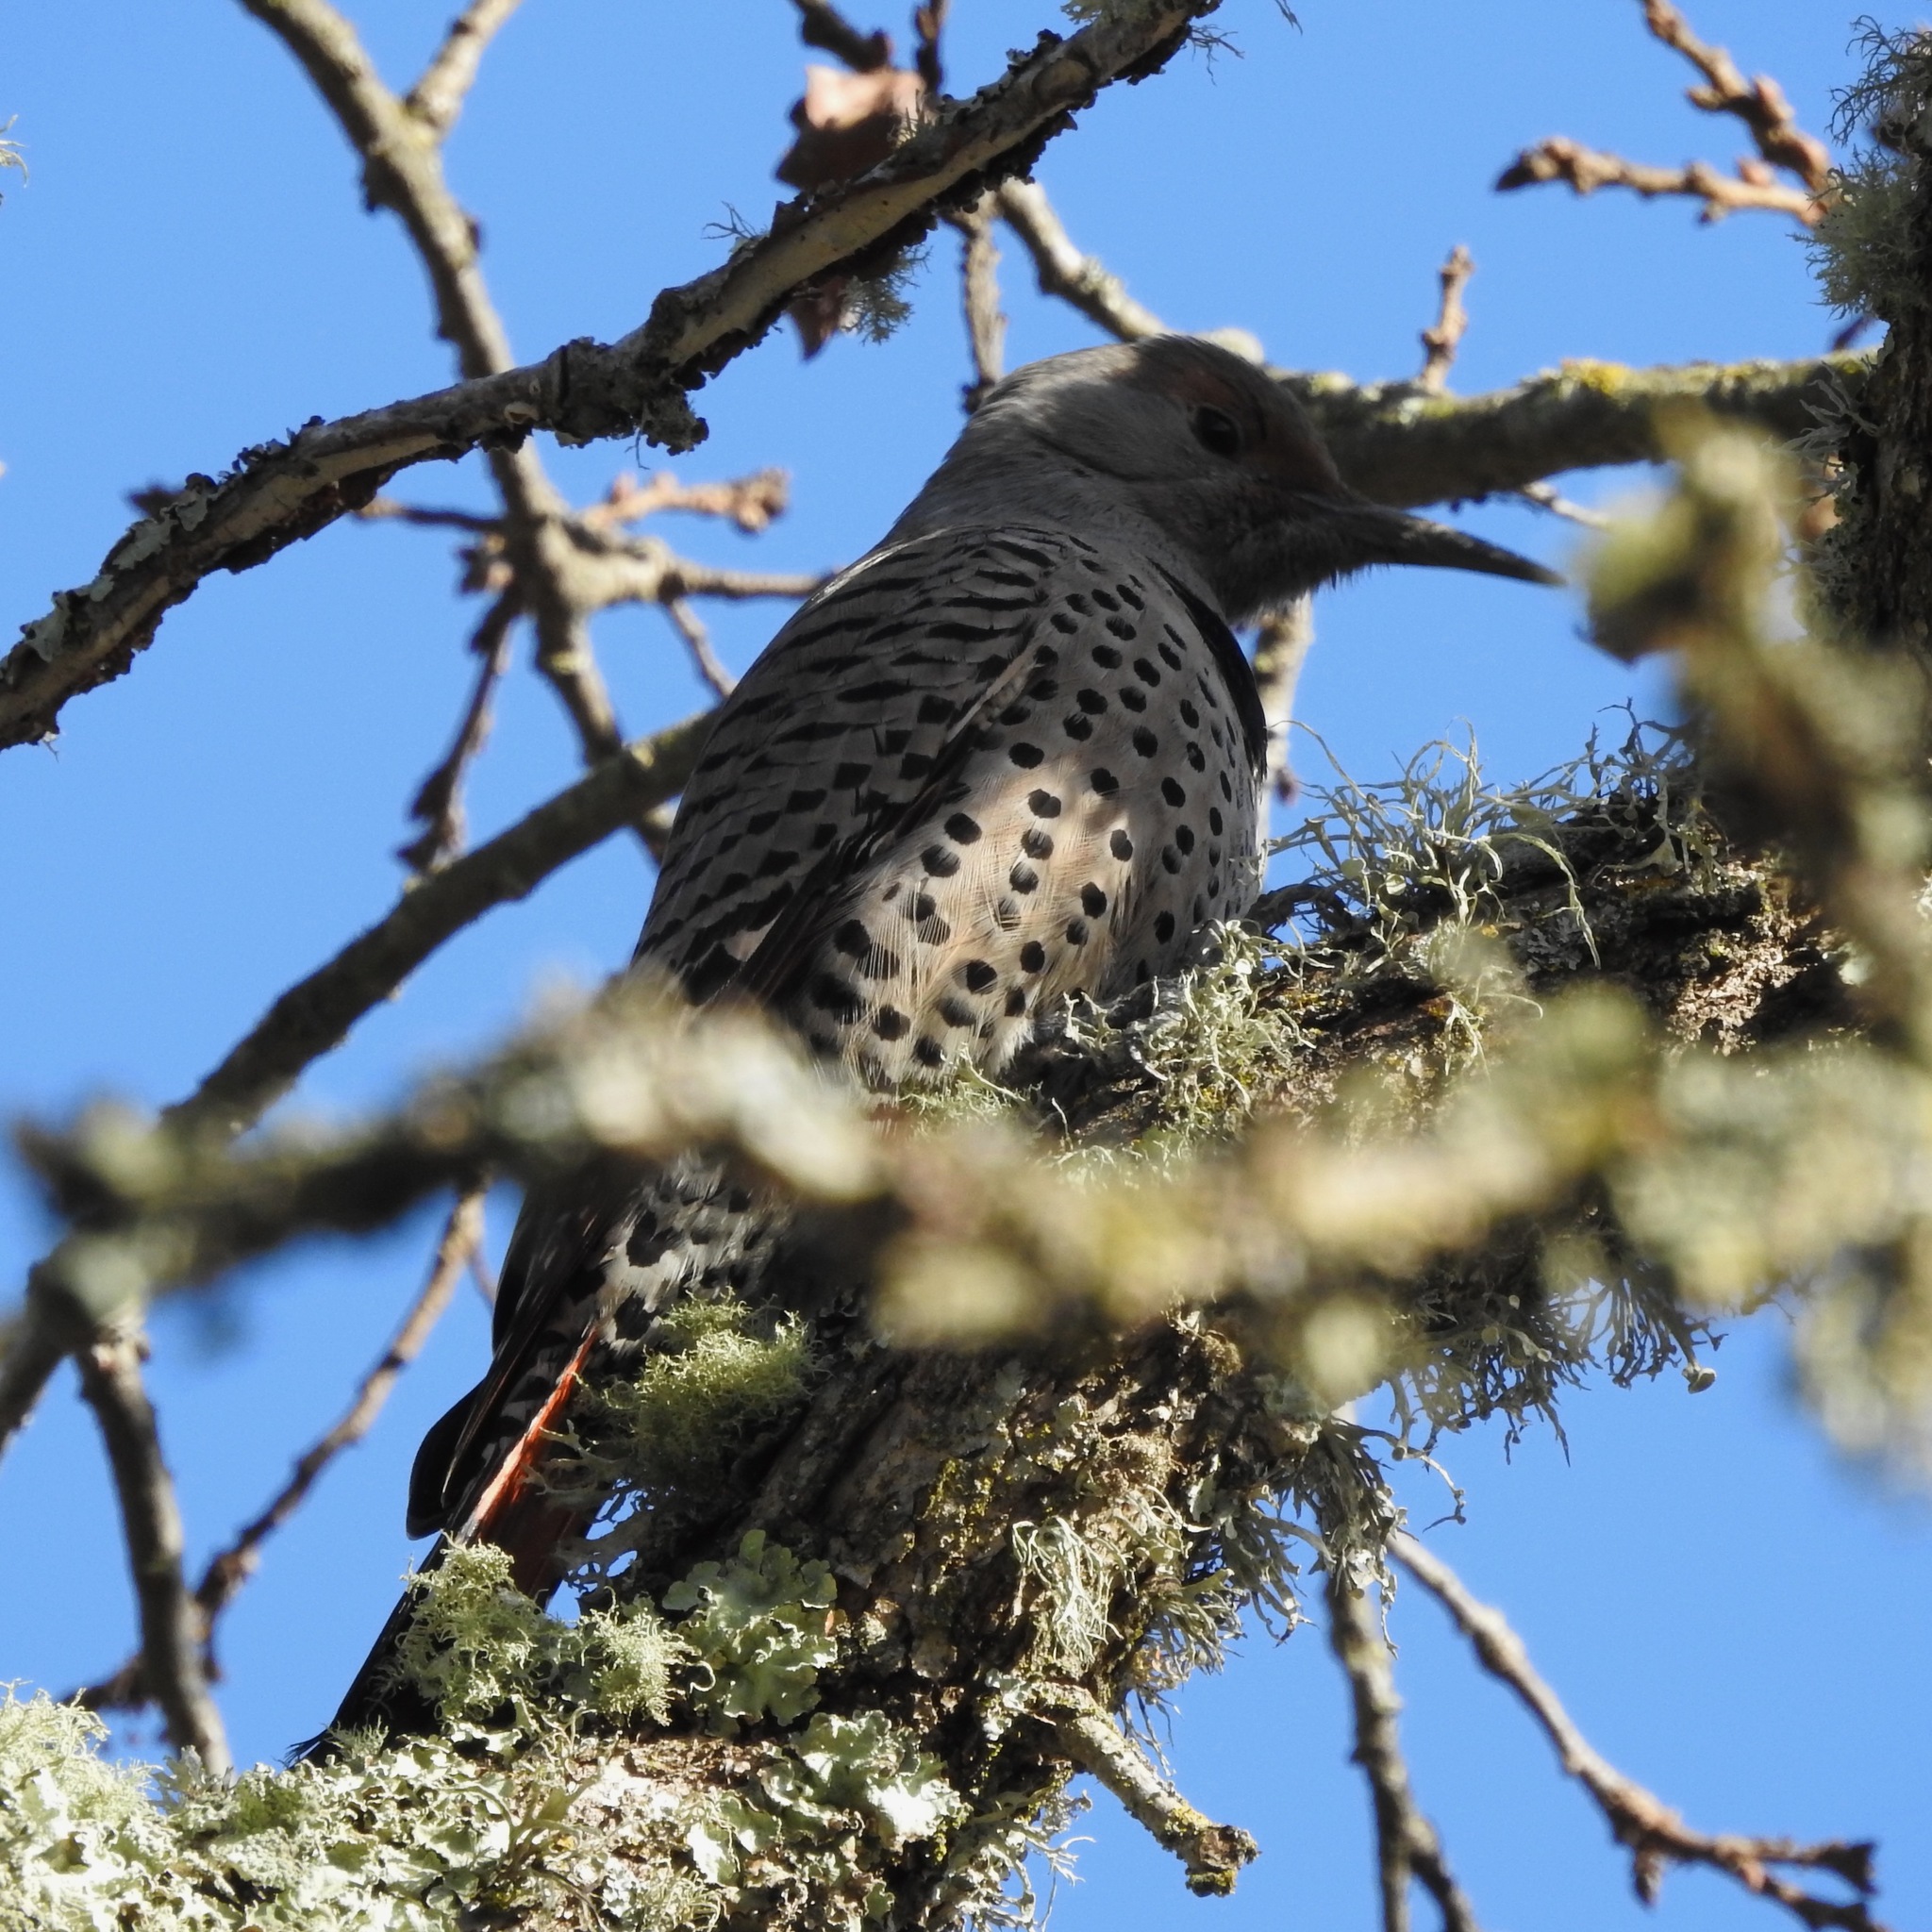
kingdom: Animalia
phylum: Chordata
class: Aves
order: Piciformes
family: Picidae
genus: Colaptes
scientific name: Colaptes auratus
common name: Northern flicker
